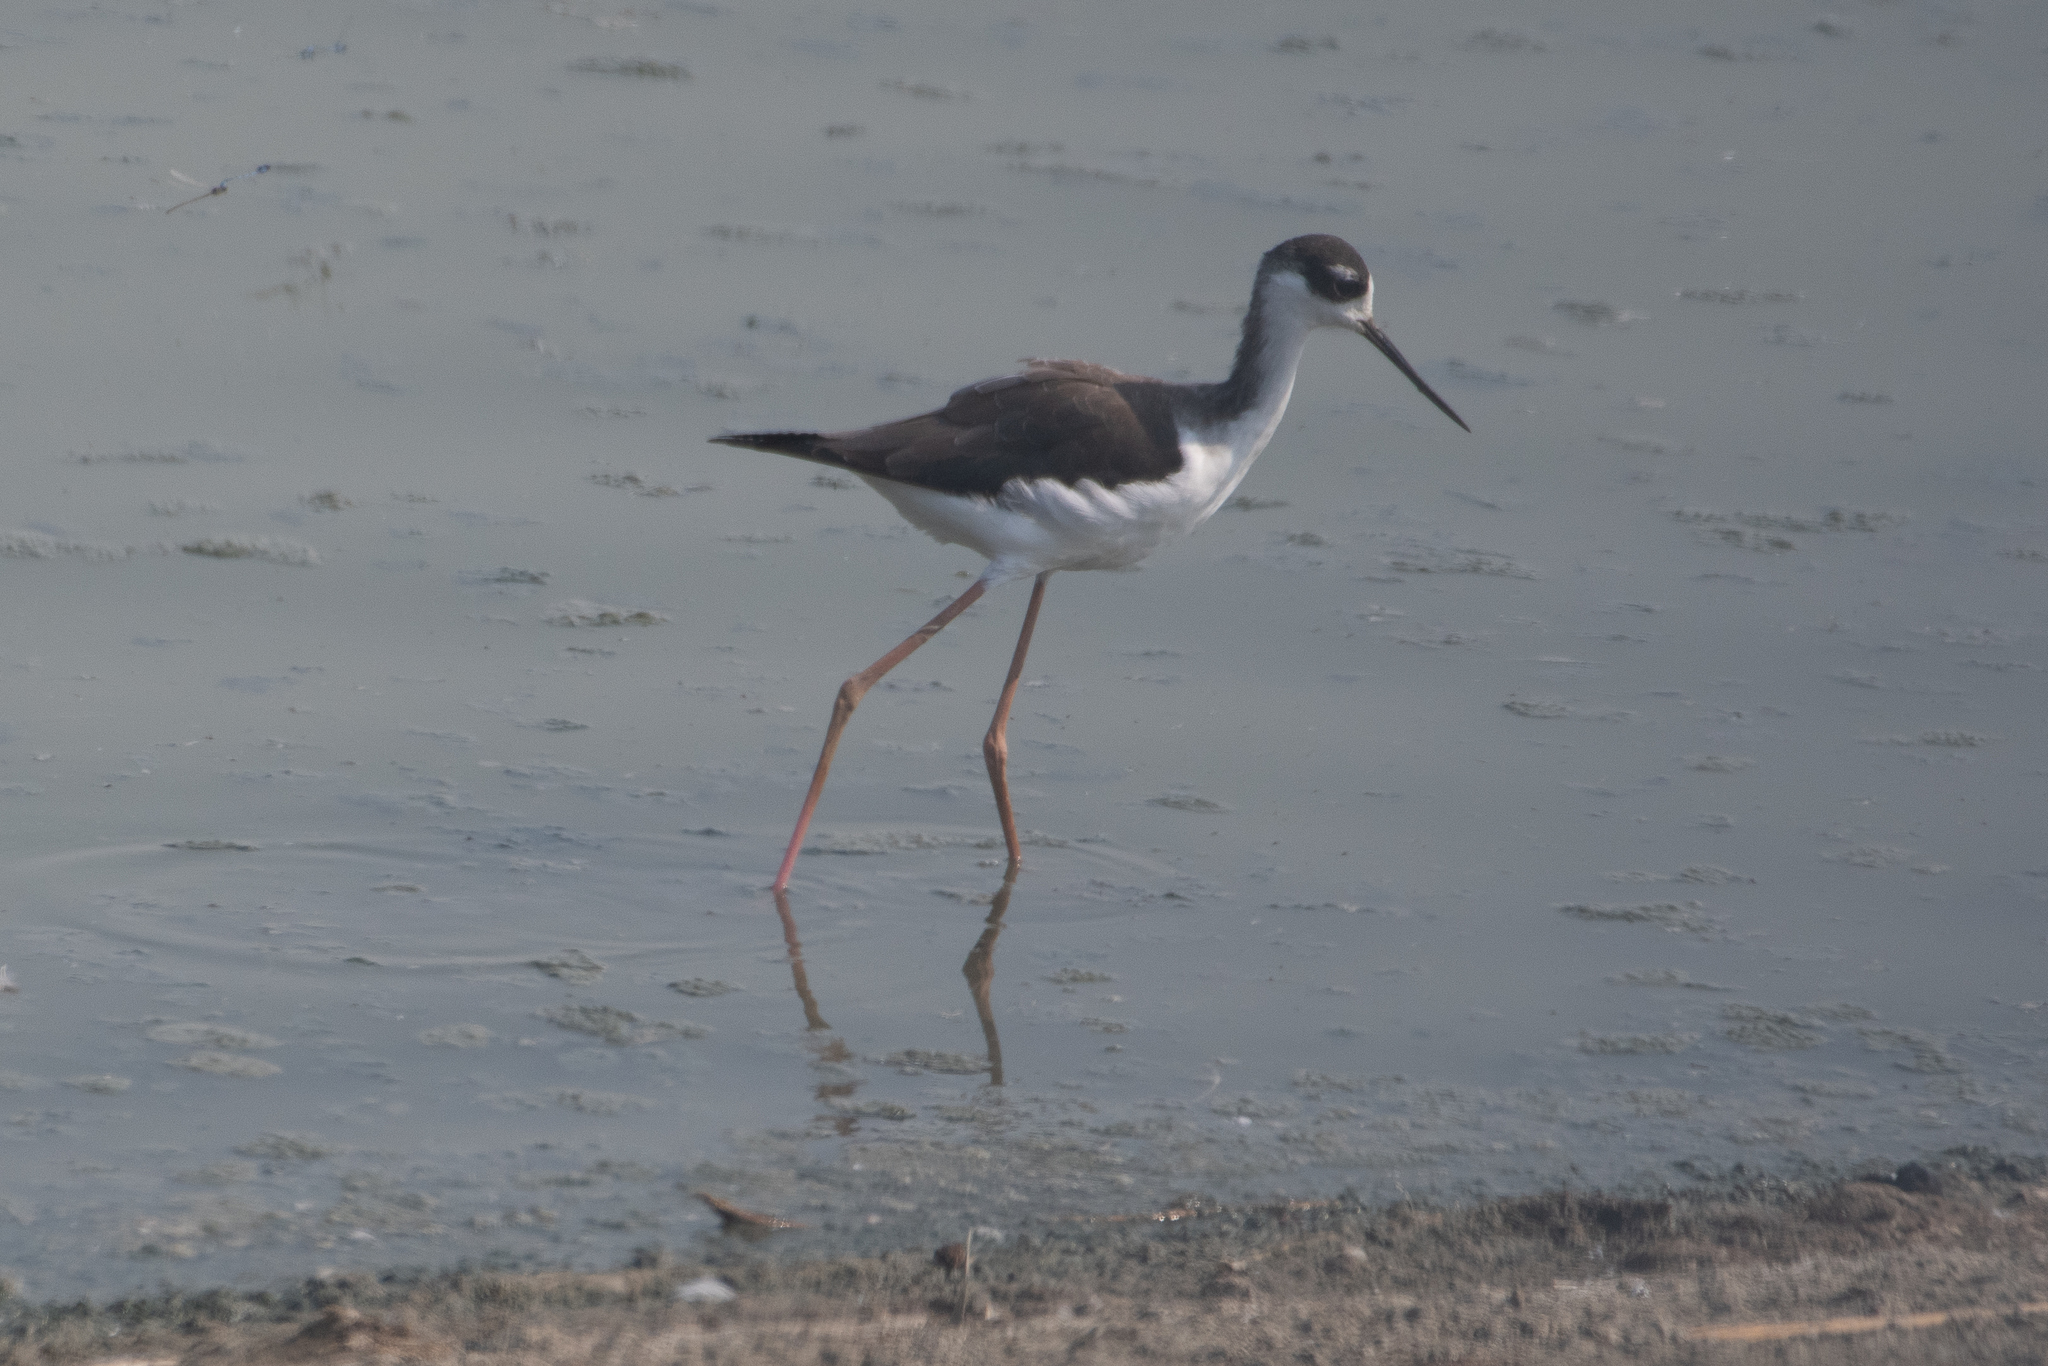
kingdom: Animalia
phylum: Chordata
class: Aves
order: Charadriiformes
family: Recurvirostridae
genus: Himantopus
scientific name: Himantopus mexicanus
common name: Black-necked stilt
